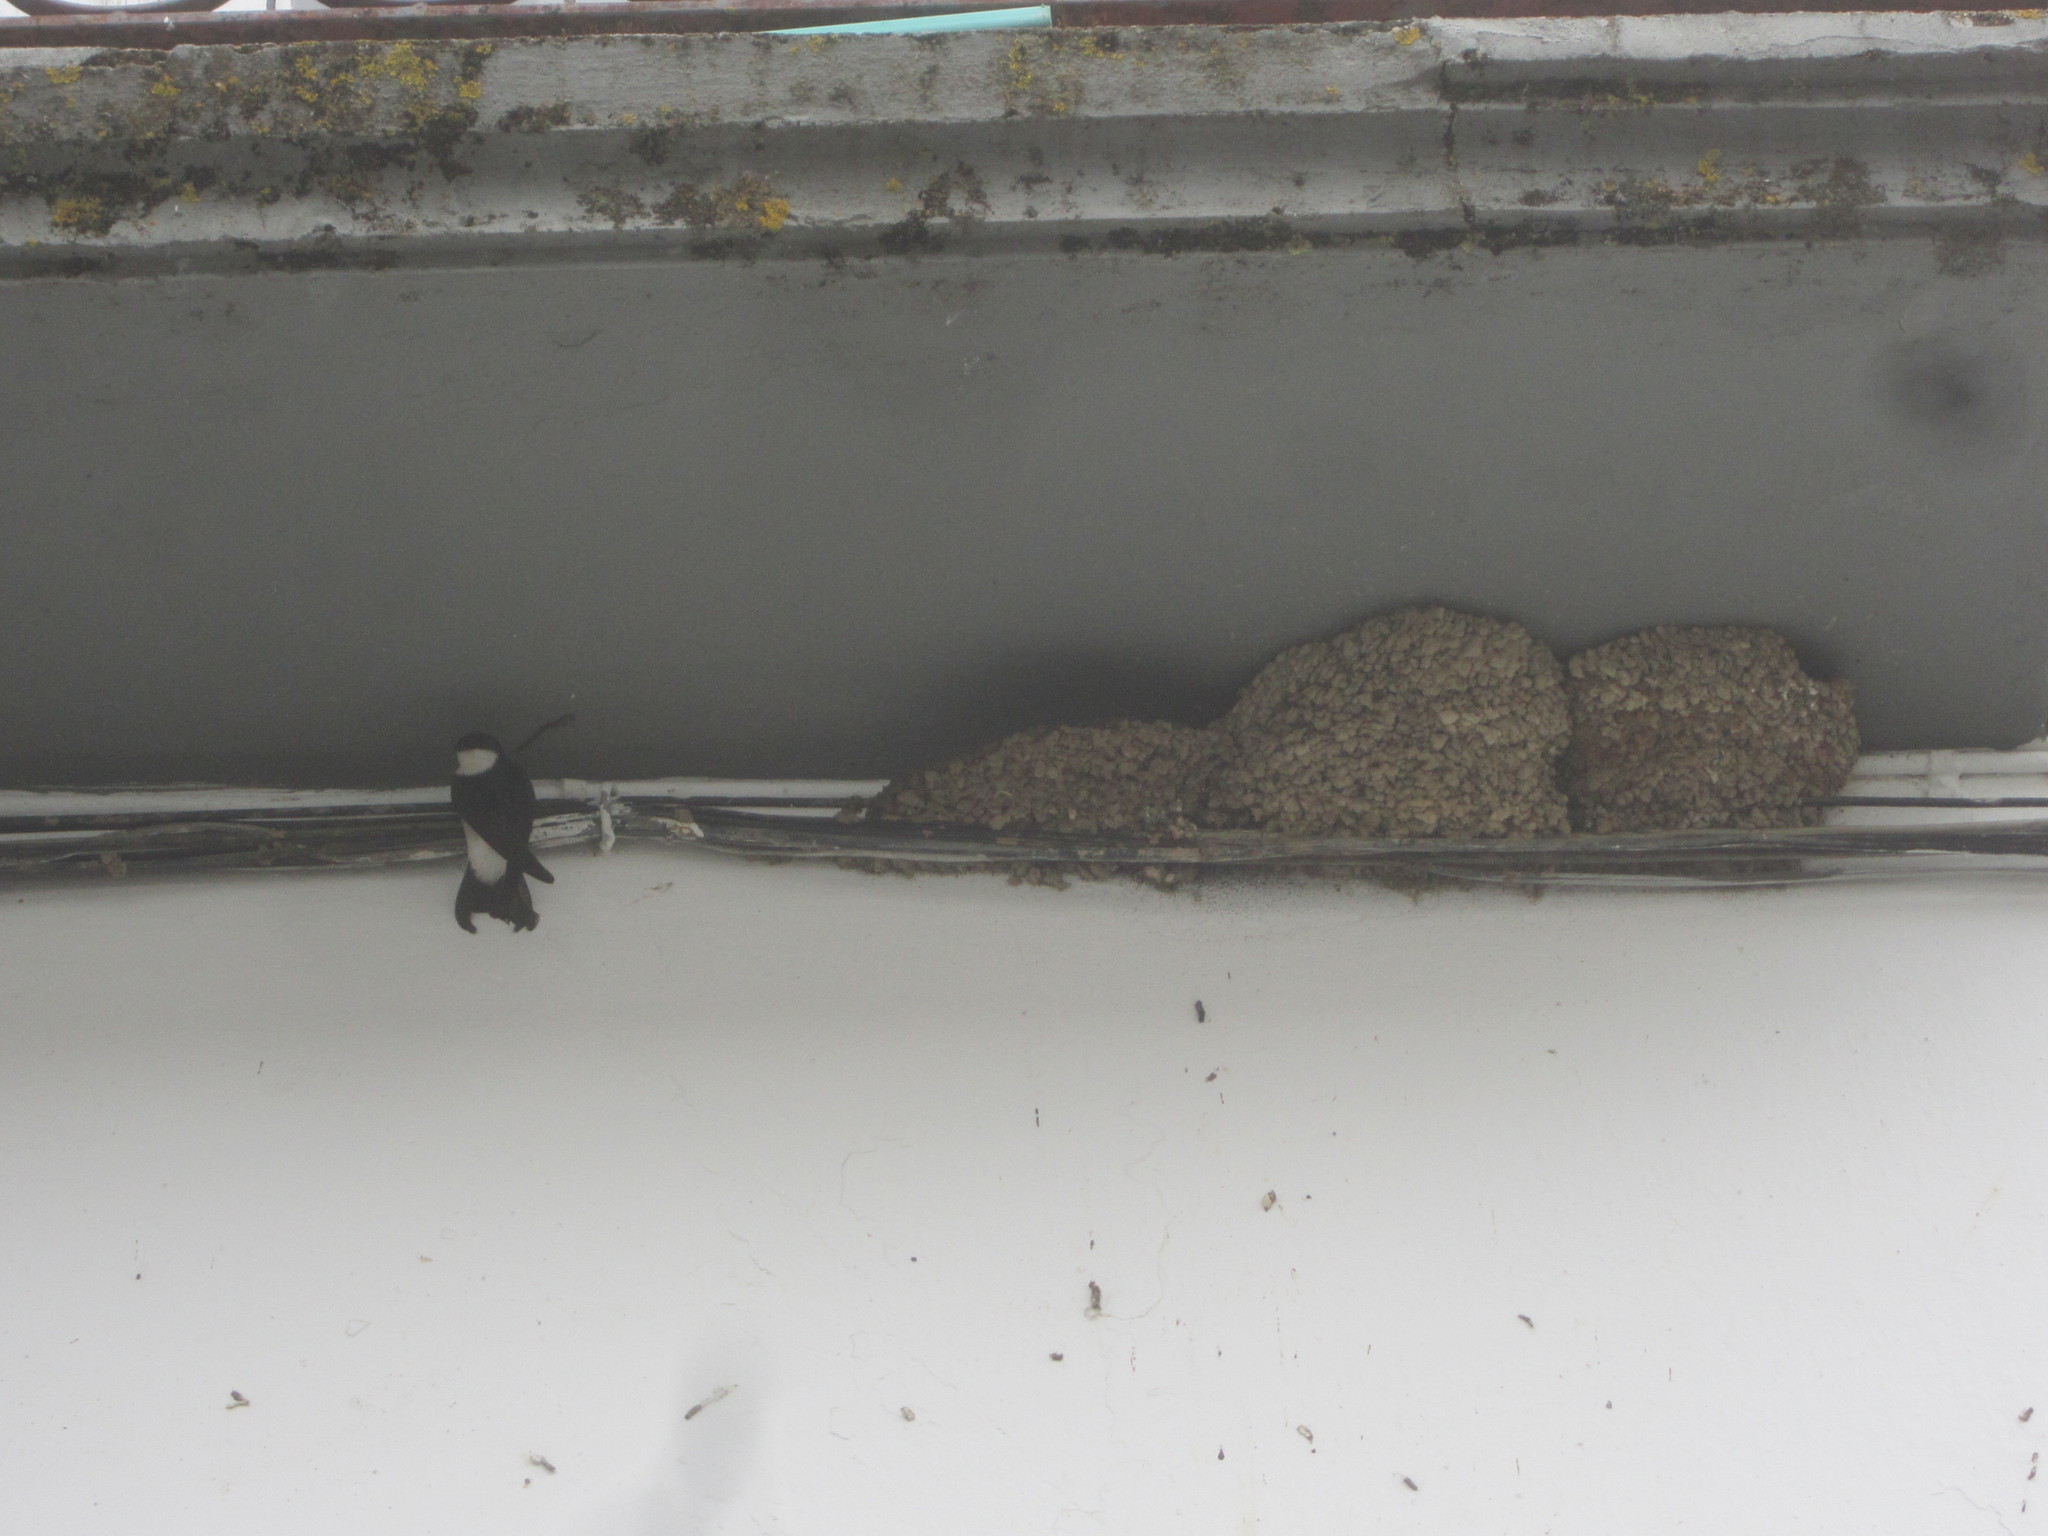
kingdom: Animalia
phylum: Chordata
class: Aves
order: Passeriformes
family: Hirundinidae
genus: Delichon
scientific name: Delichon urbicum
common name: Common house martin
